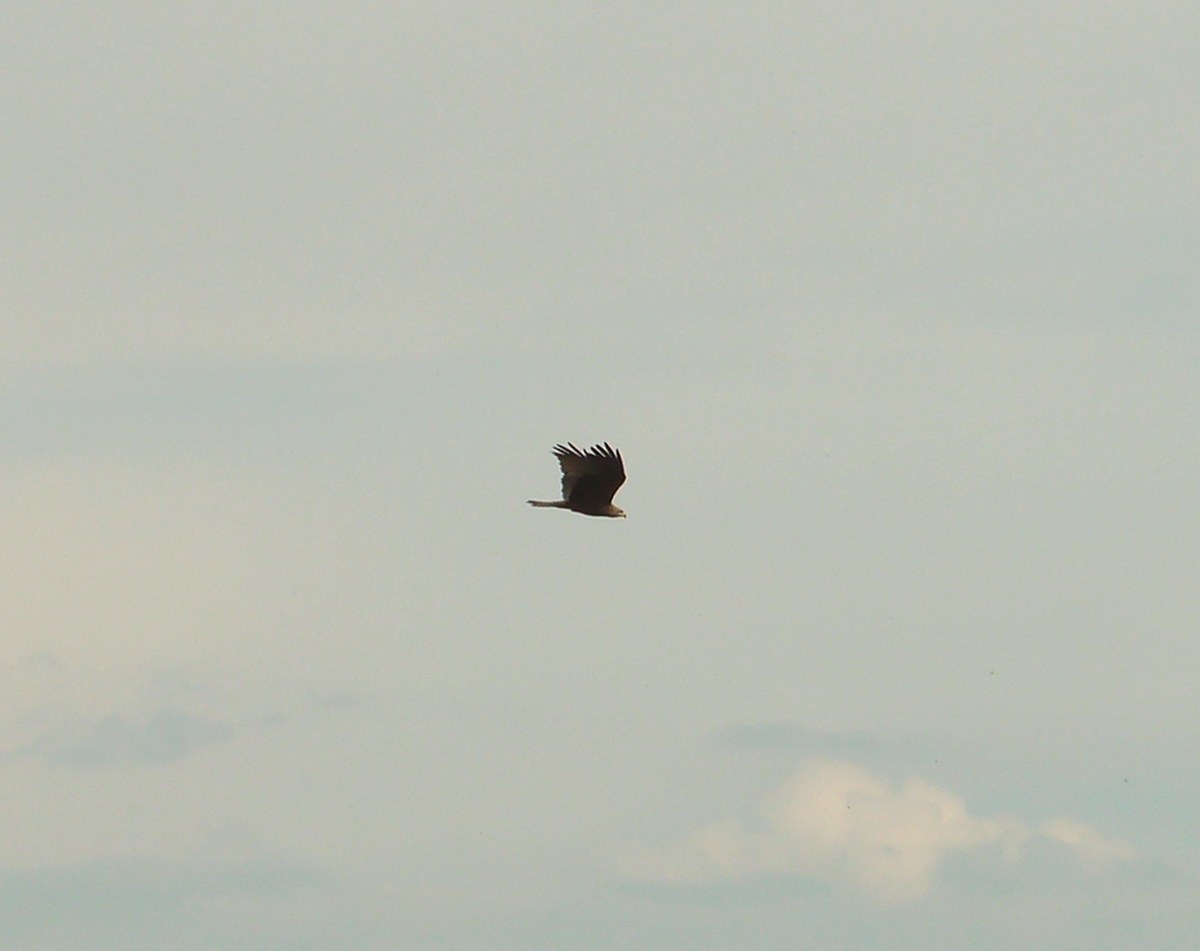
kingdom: Animalia
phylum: Chordata
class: Aves
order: Accipitriformes
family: Accipitridae
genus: Milvus
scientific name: Milvus migrans
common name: Black kite
